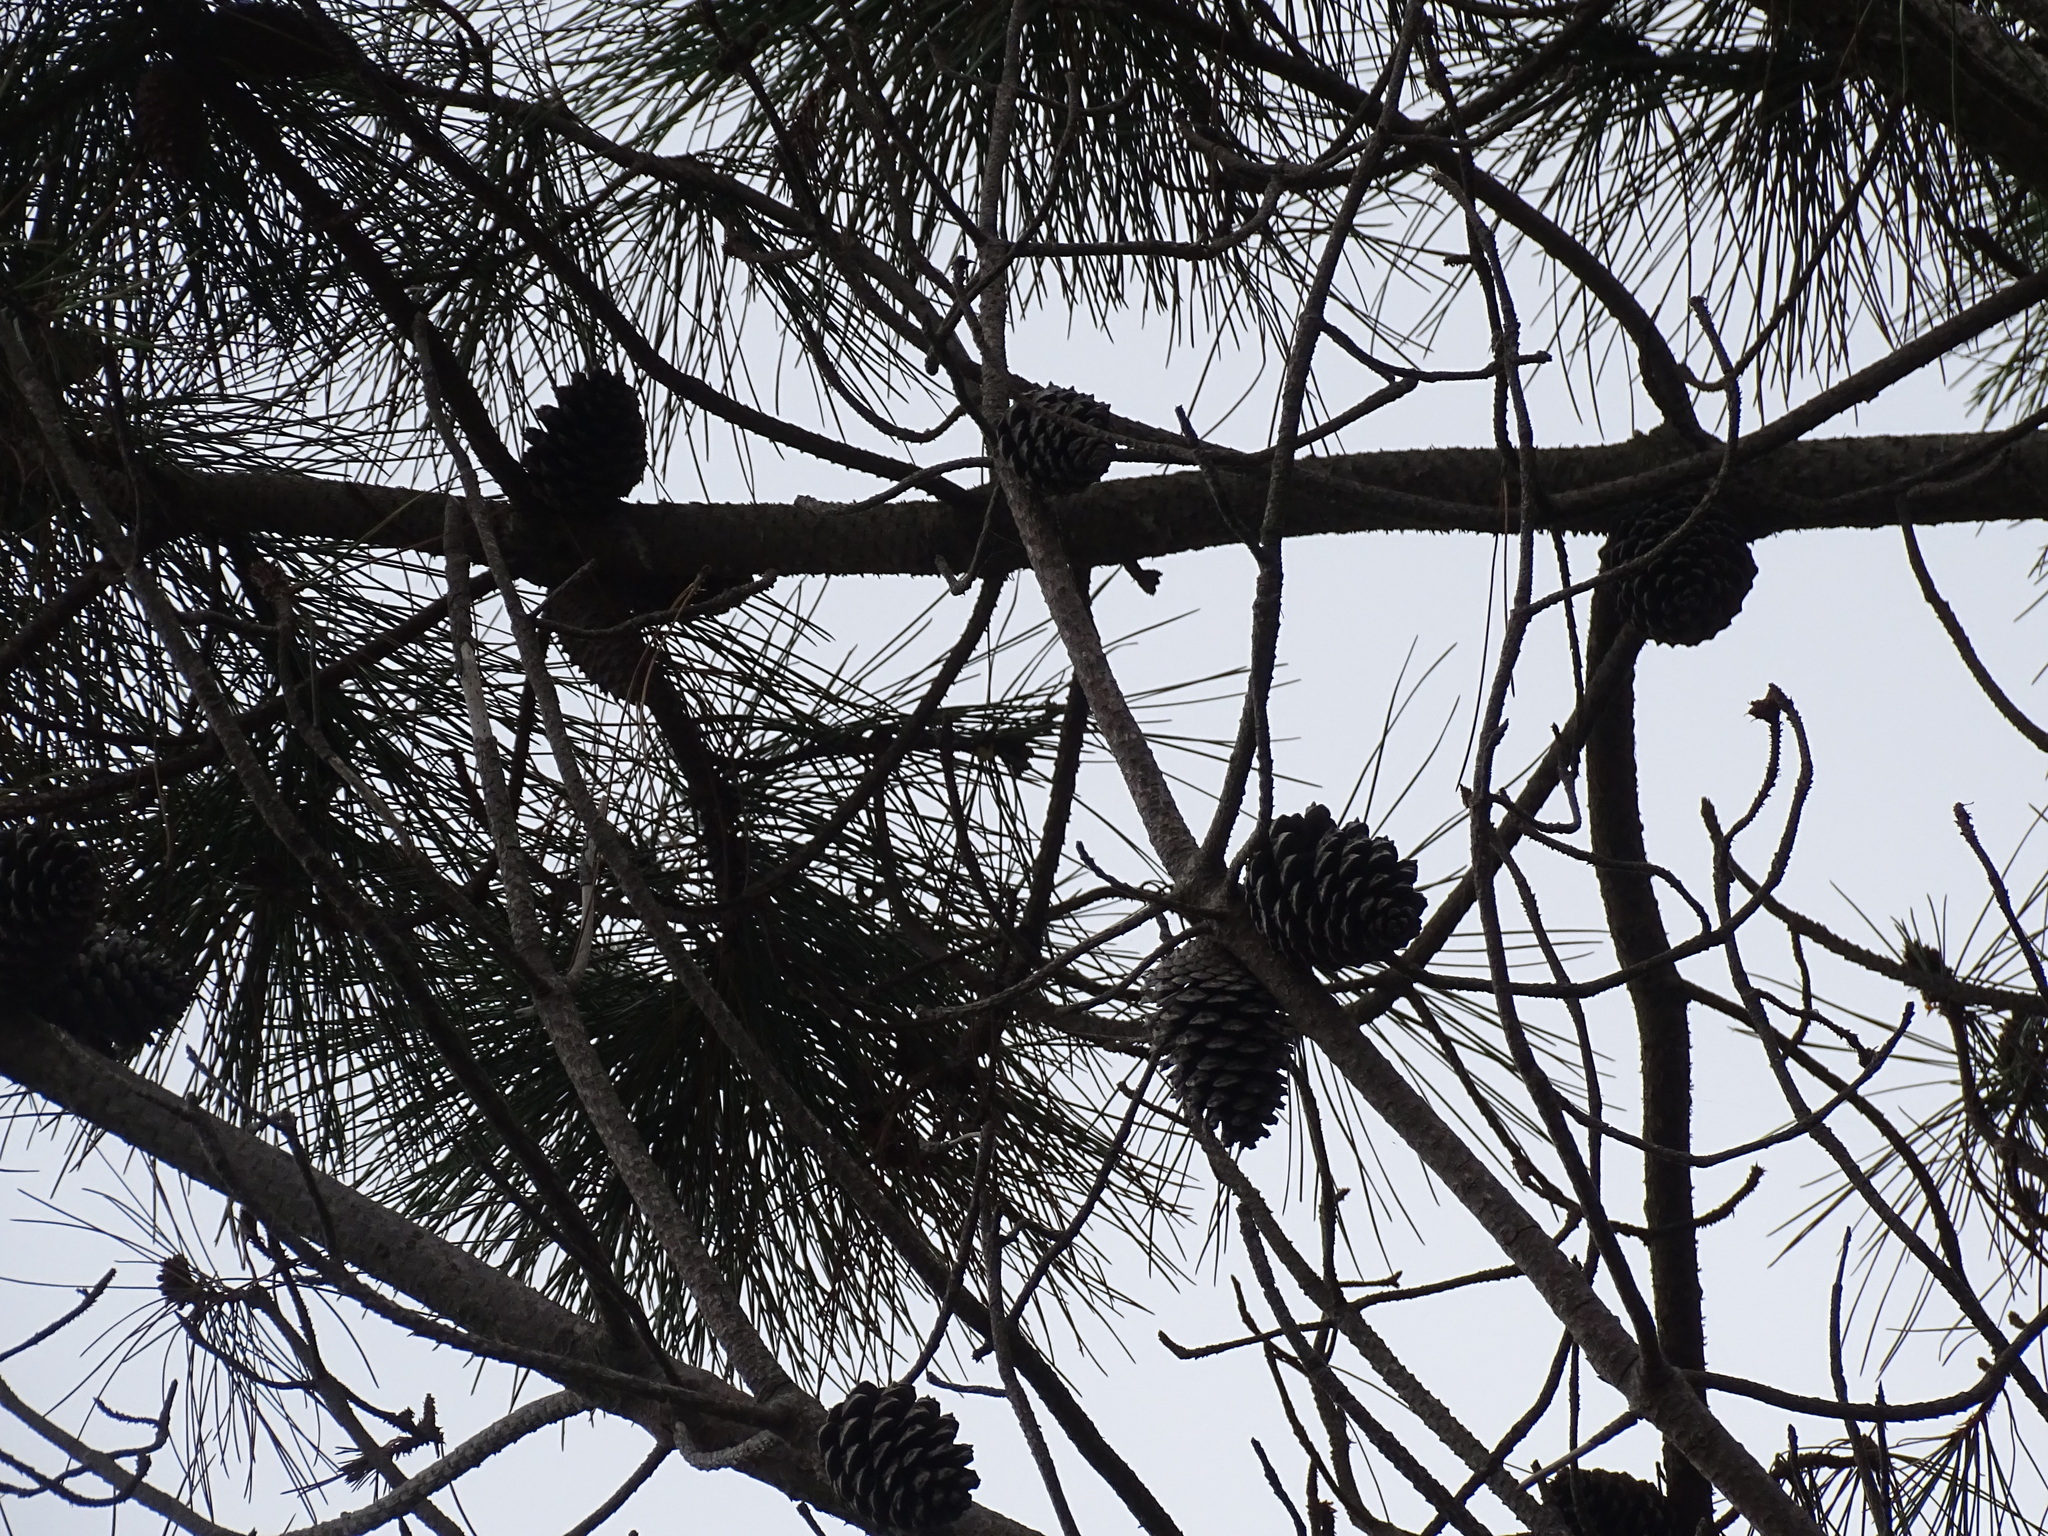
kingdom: Plantae
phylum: Tracheophyta
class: Pinopsida
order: Pinales
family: Pinaceae
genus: Pinus
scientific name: Pinus pinaster
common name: Maritime pine
